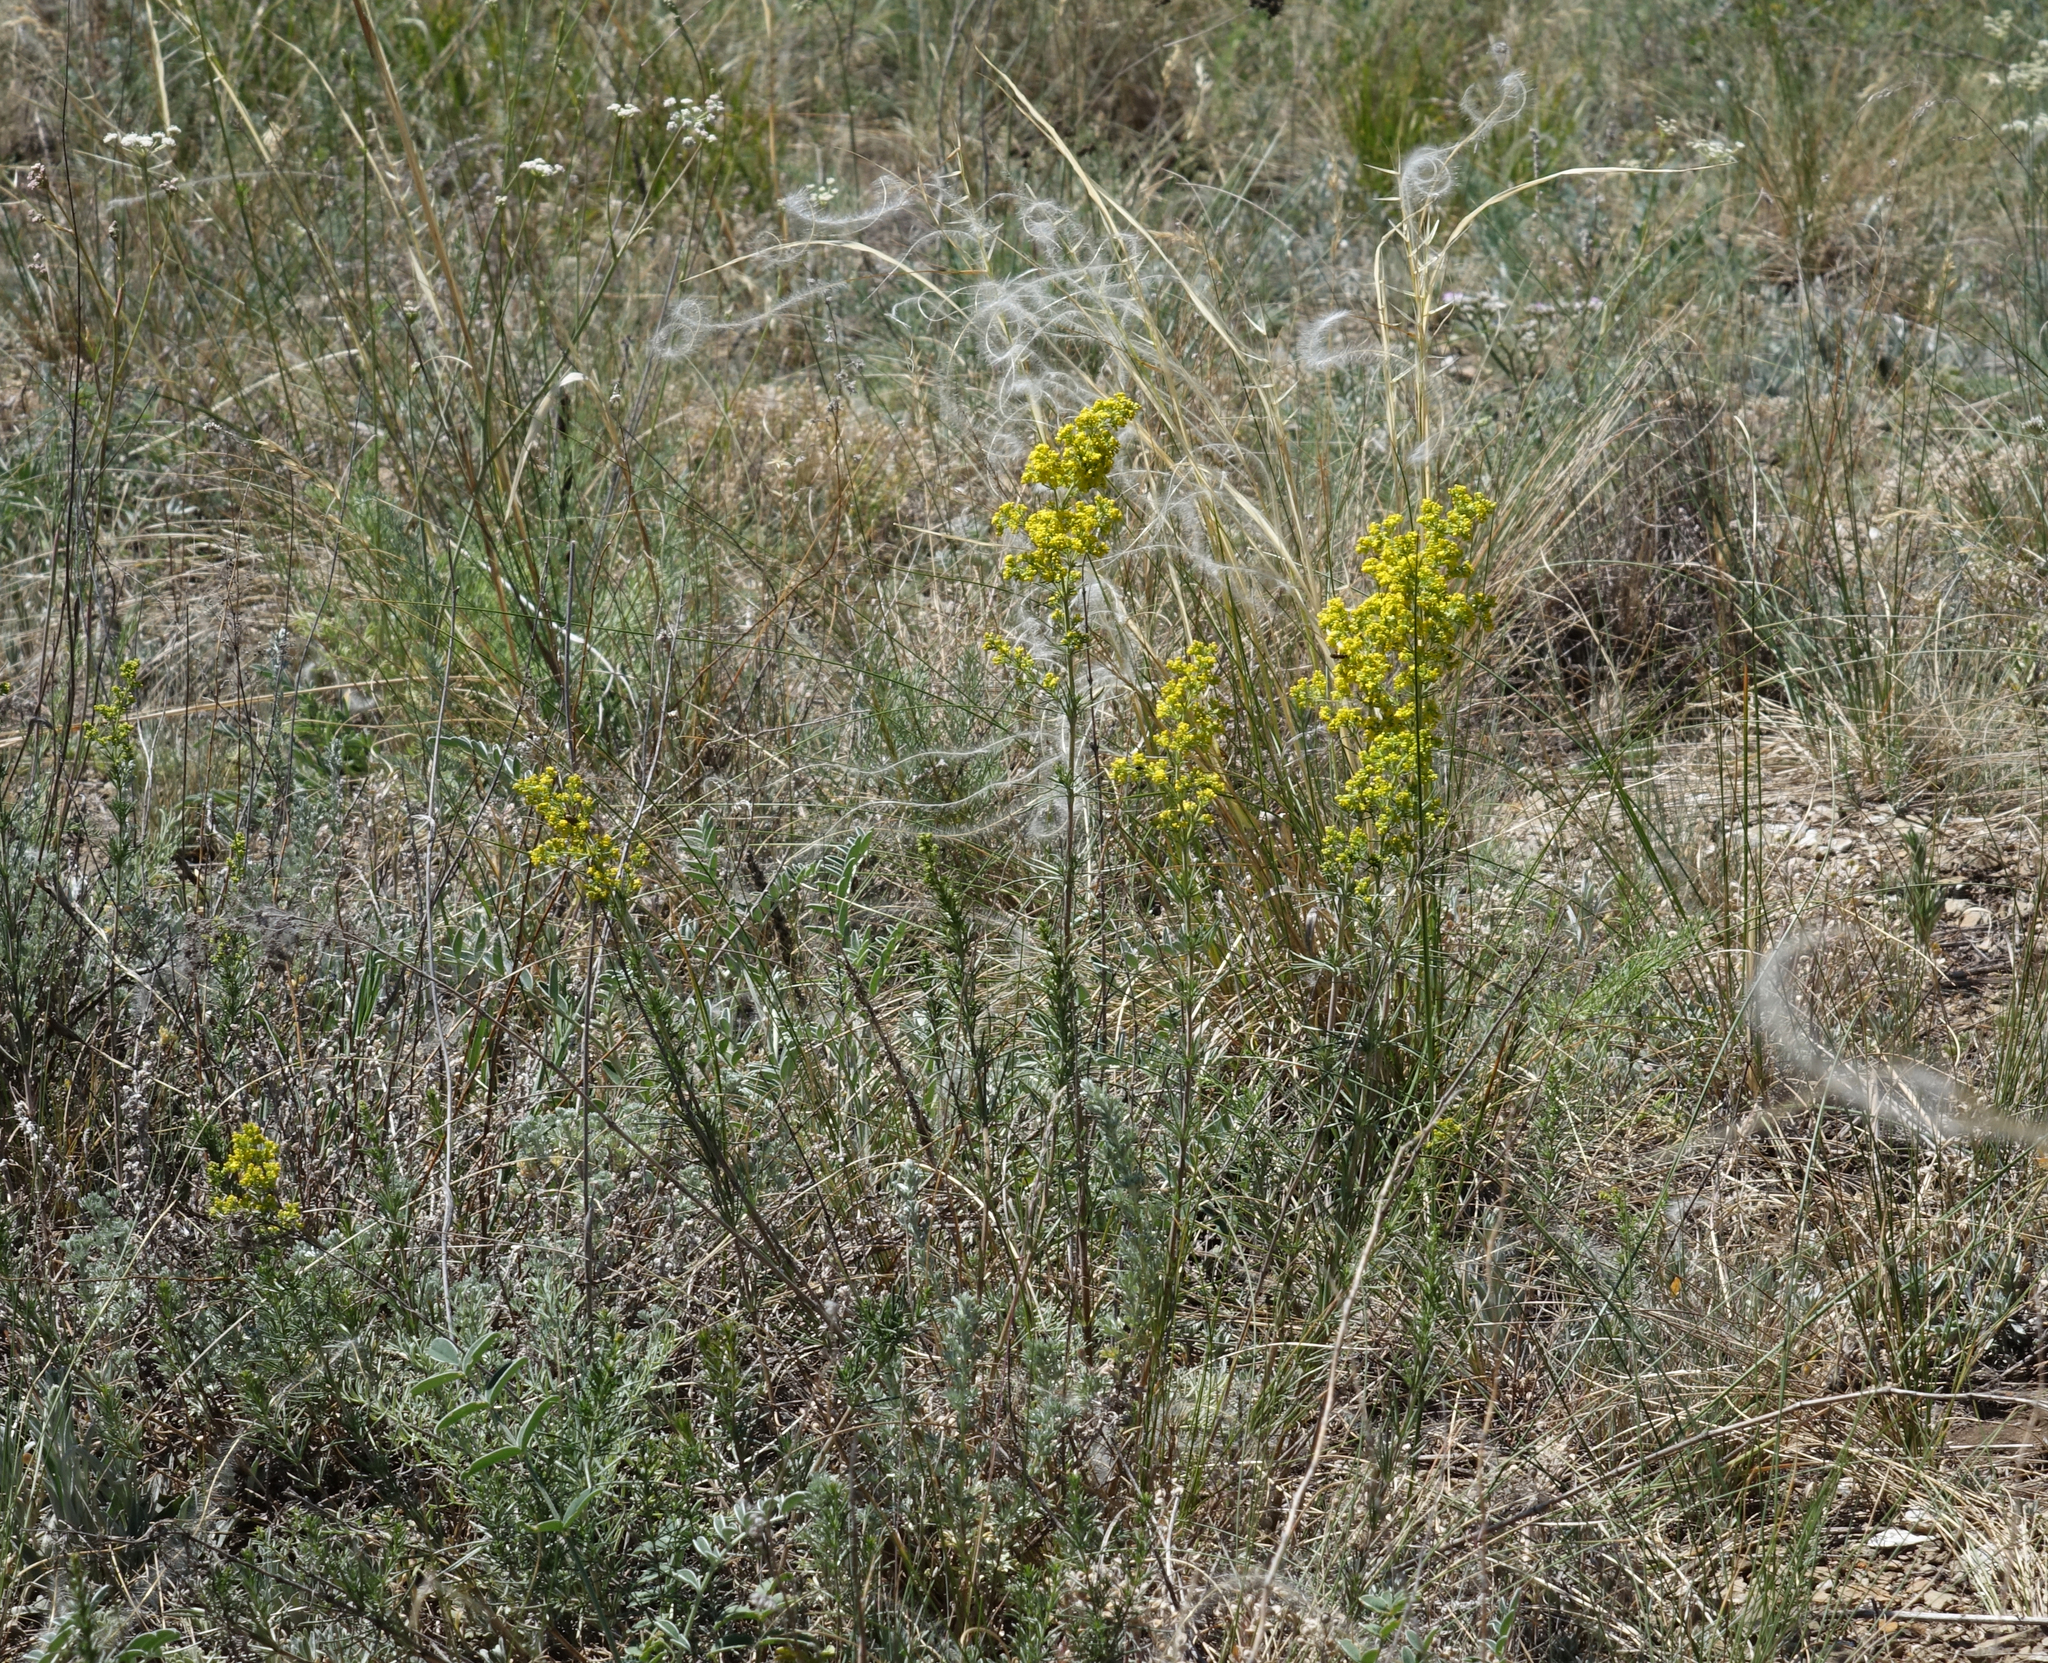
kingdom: Plantae
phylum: Tracheophyta
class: Magnoliopsida
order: Gentianales
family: Rubiaceae
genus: Galium
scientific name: Galium verum
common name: Lady's bedstraw
